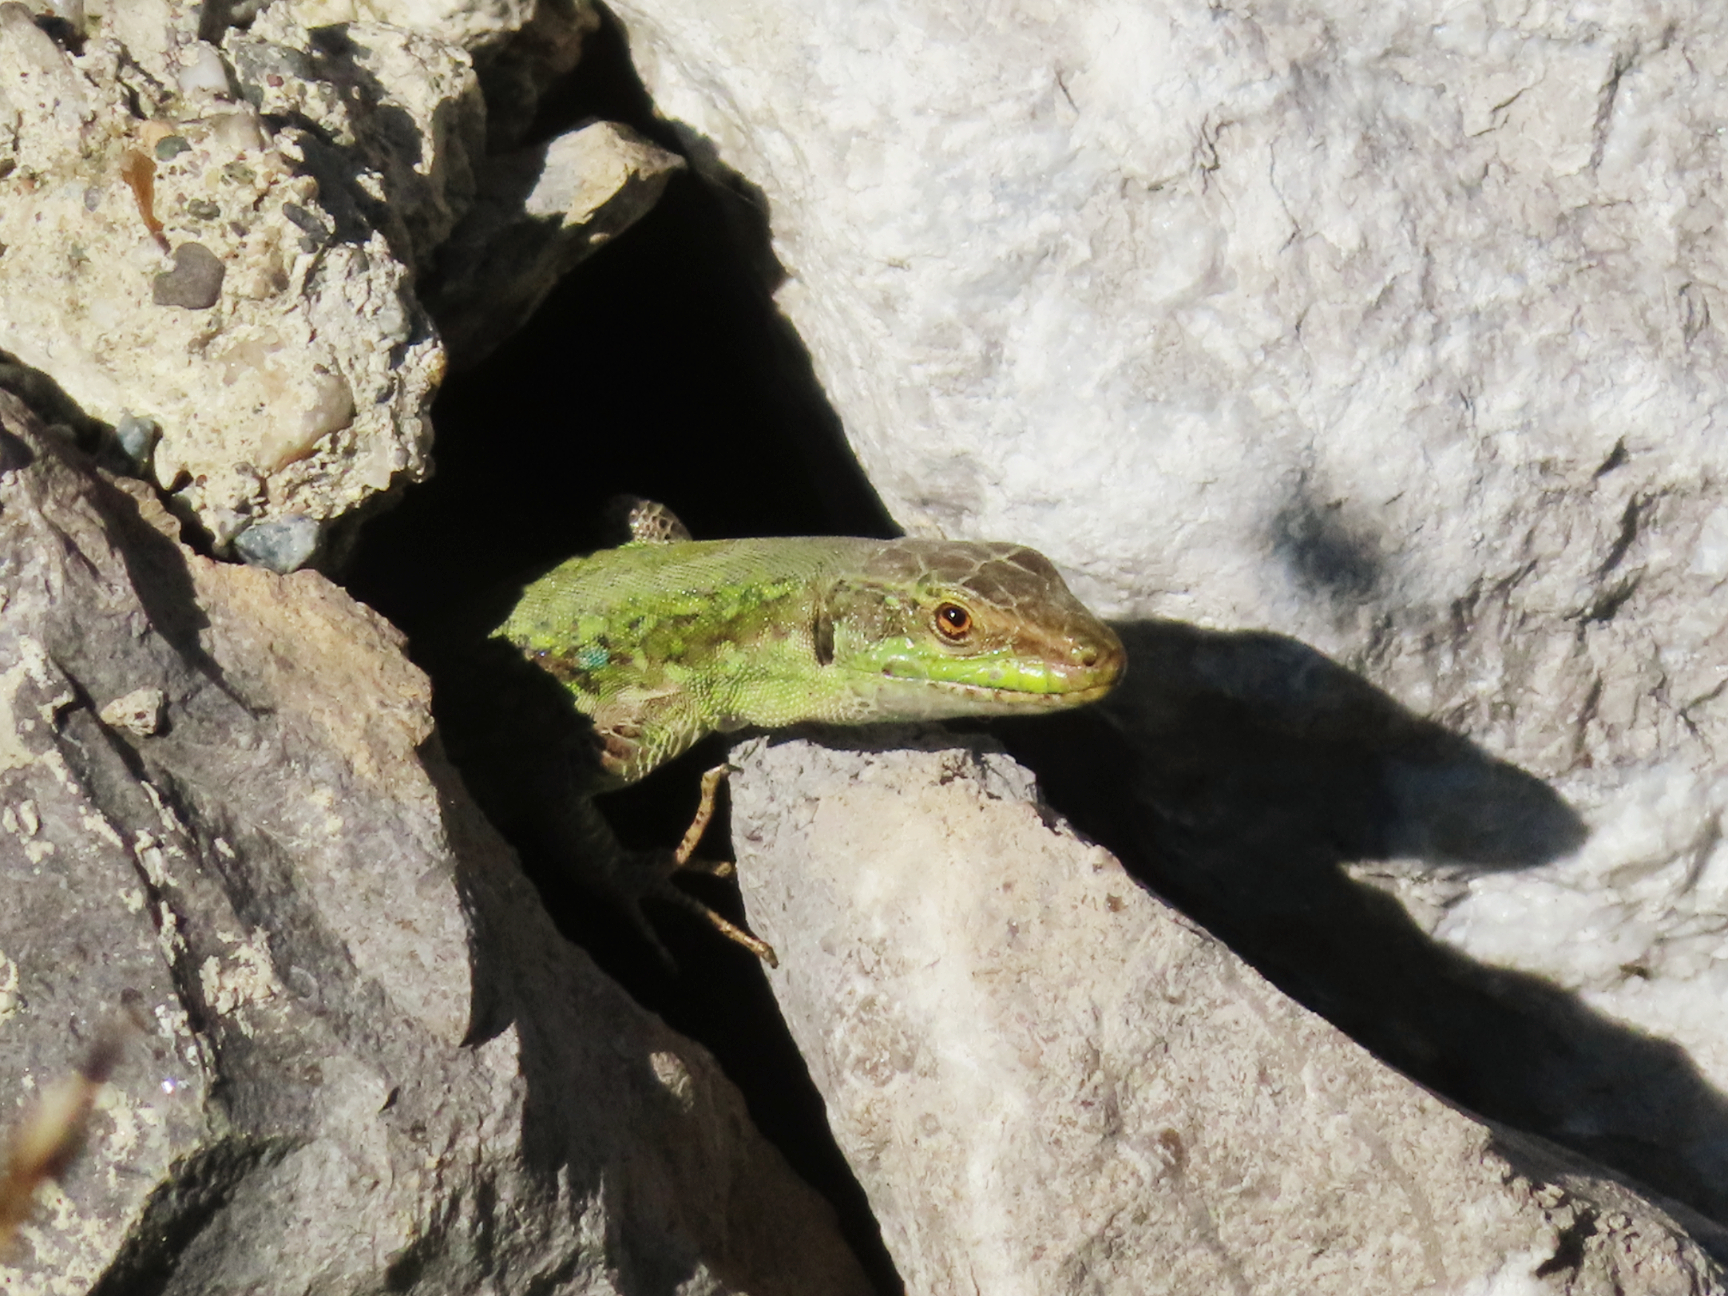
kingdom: Animalia
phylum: Chordata
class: Squamata
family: Lacertidae
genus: Podarcis
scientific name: Podarcis siculus
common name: Italian wall lizard
